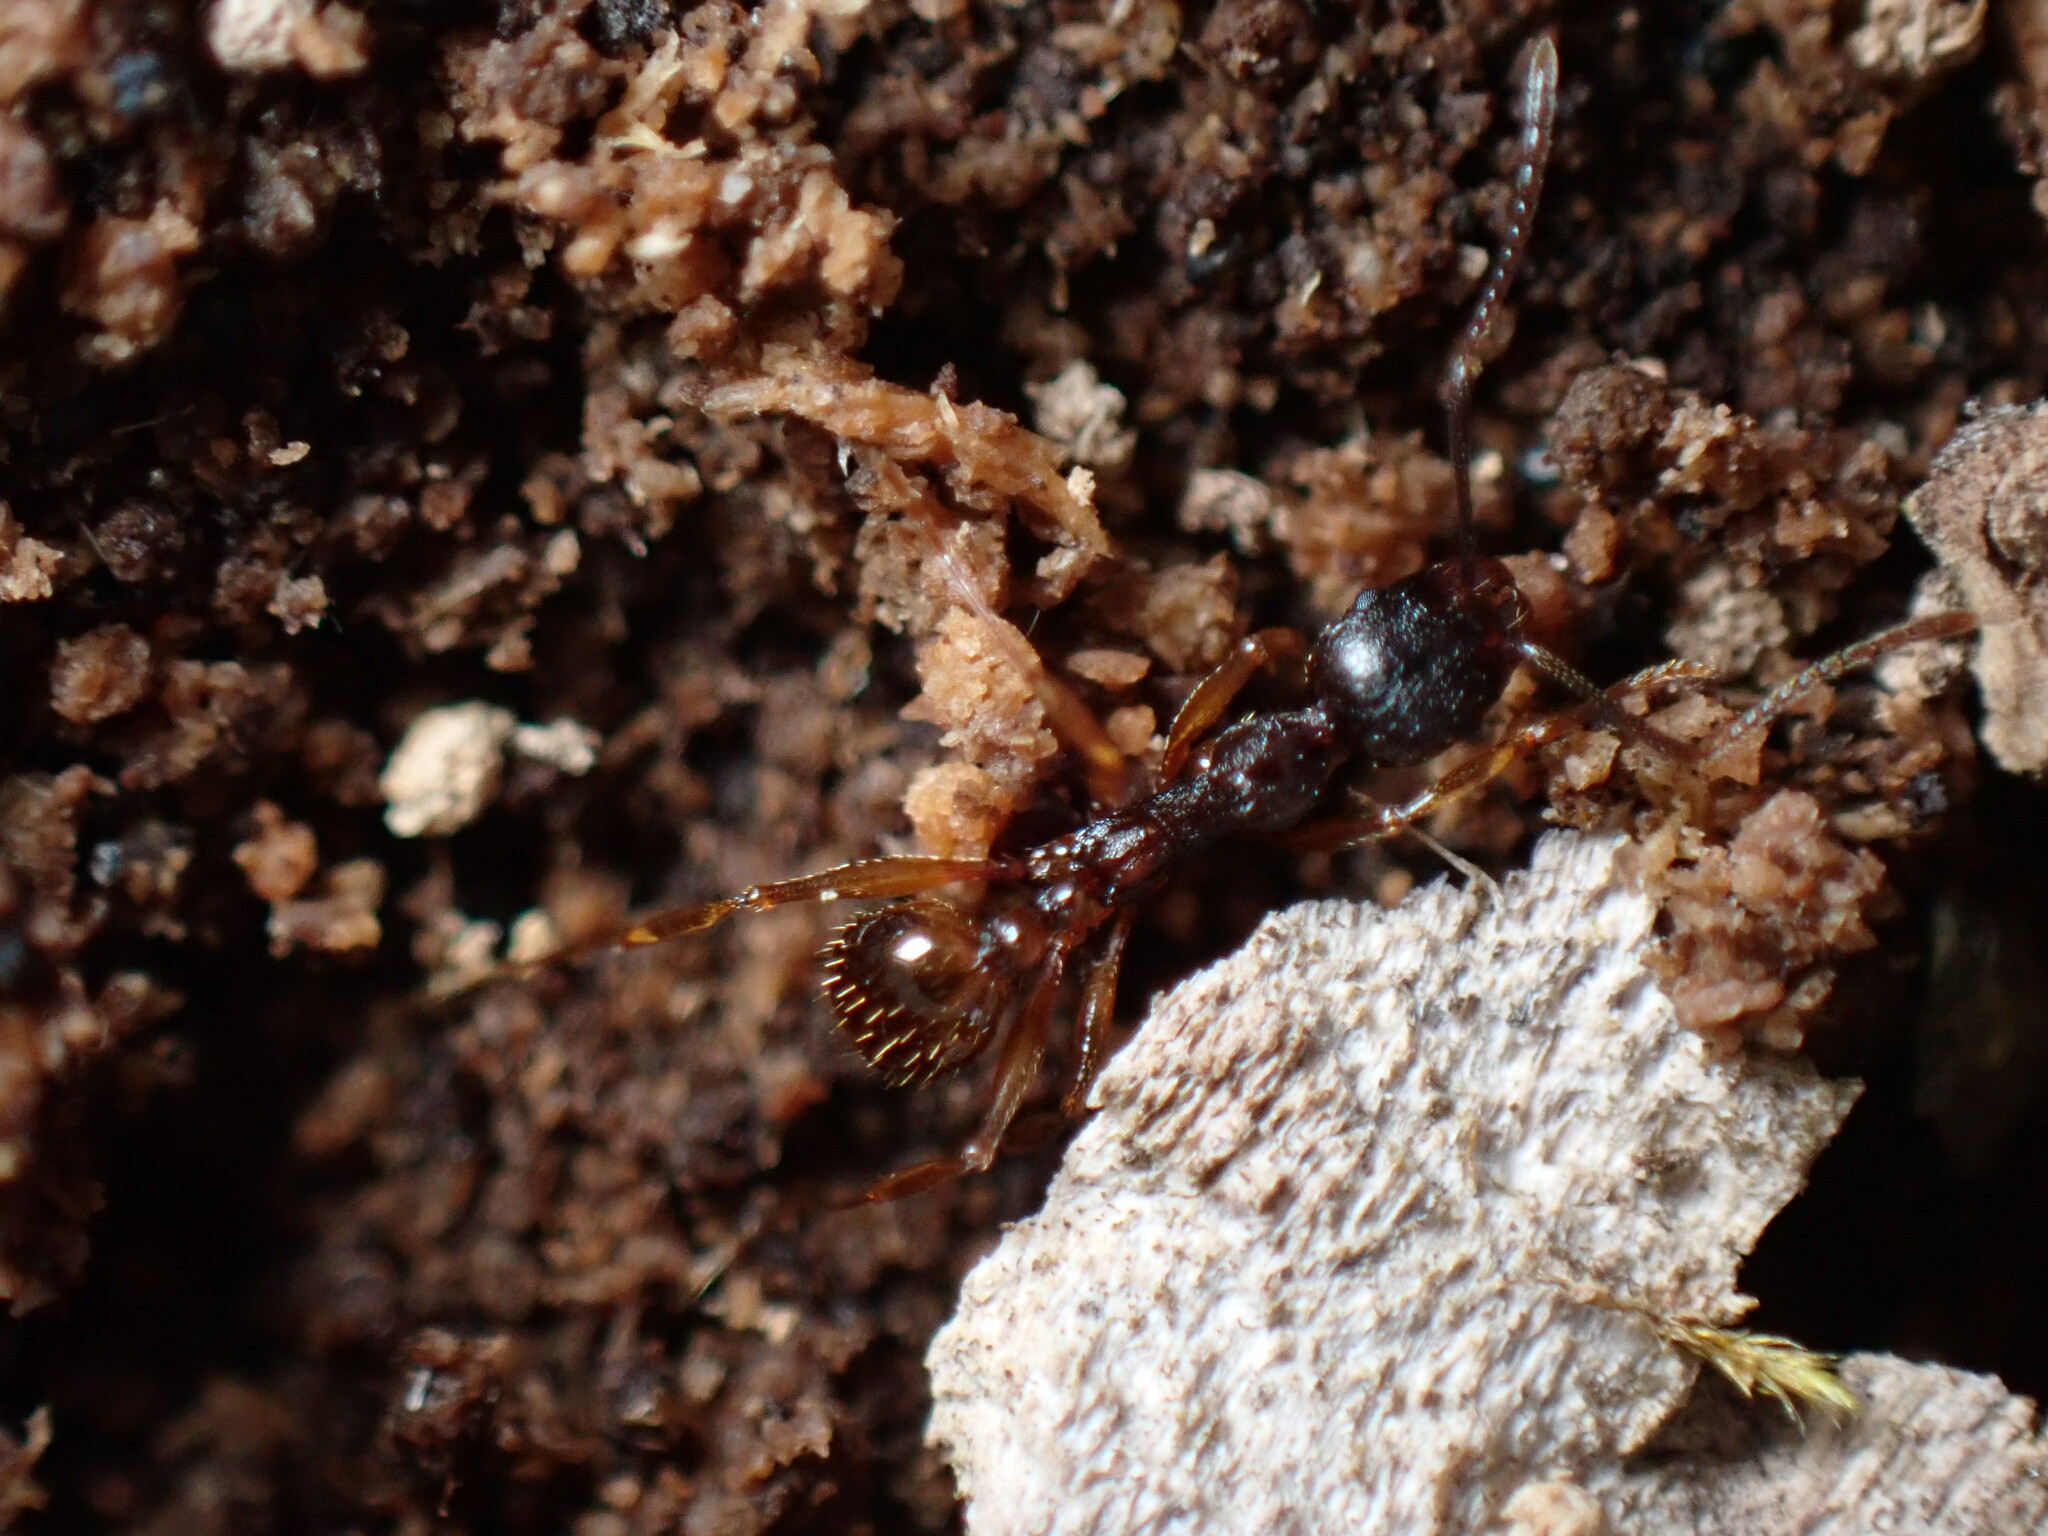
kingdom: Animalia
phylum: Arthropoda
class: Insecta
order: Hymenoptera
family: Formicidae
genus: Aphaenogaster
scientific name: Aphaenogaster japonica
